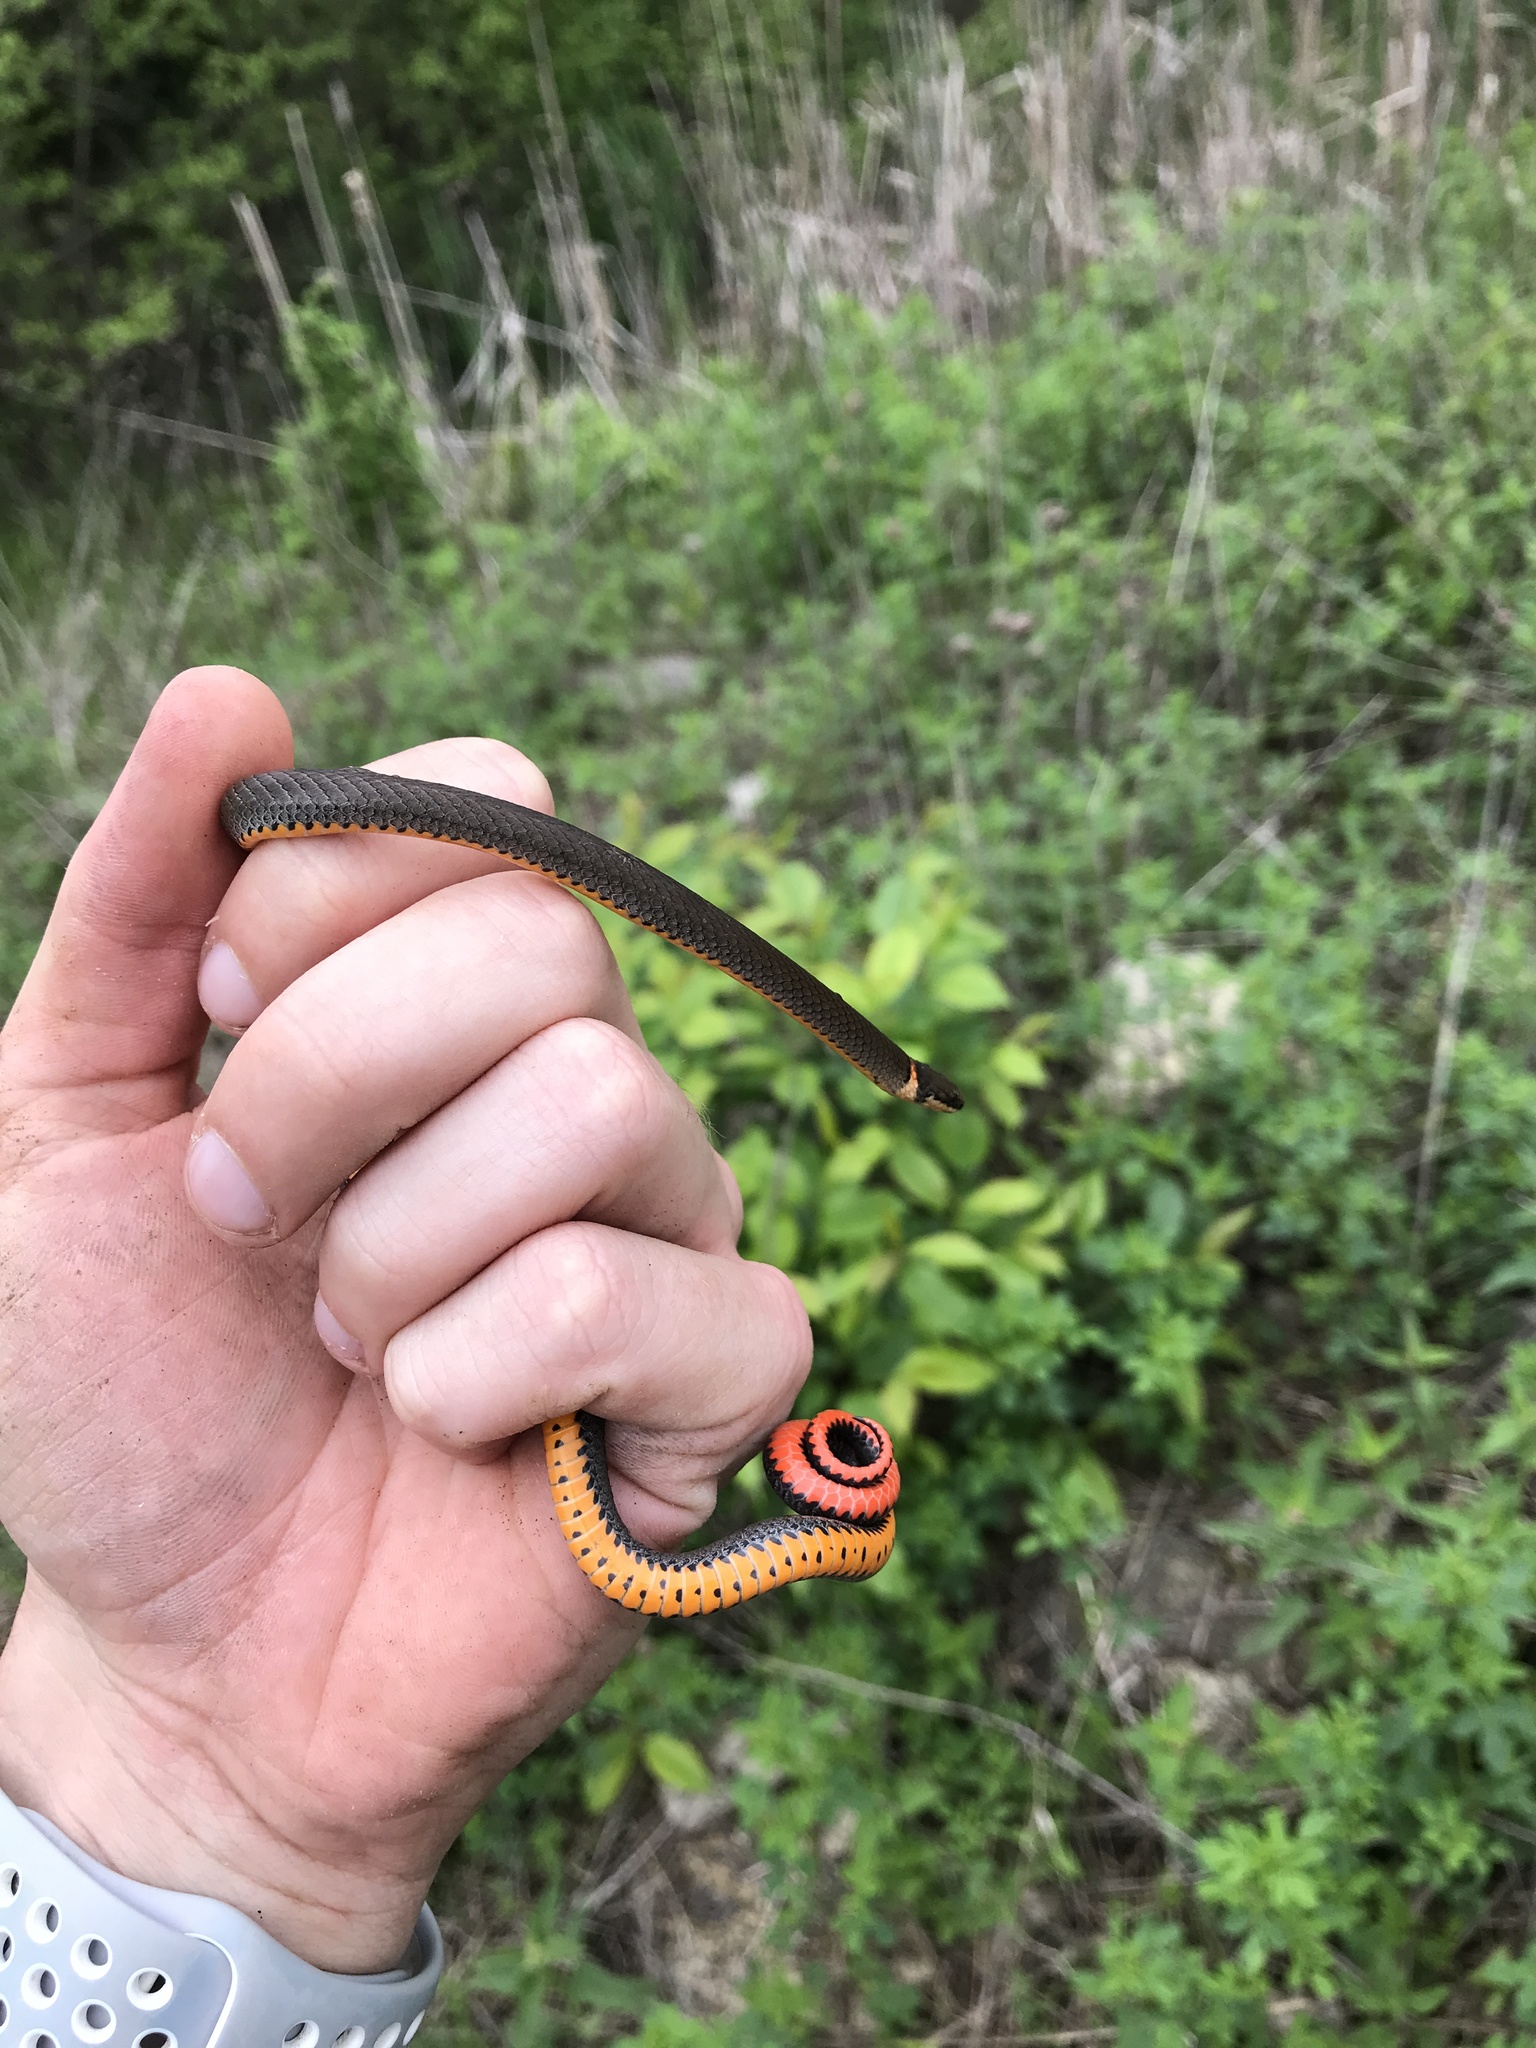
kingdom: Animalia
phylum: Chordata
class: Squamata
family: Colubridae
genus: Diadophis
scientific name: Diadophis punctatus
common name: Ringneck snake
